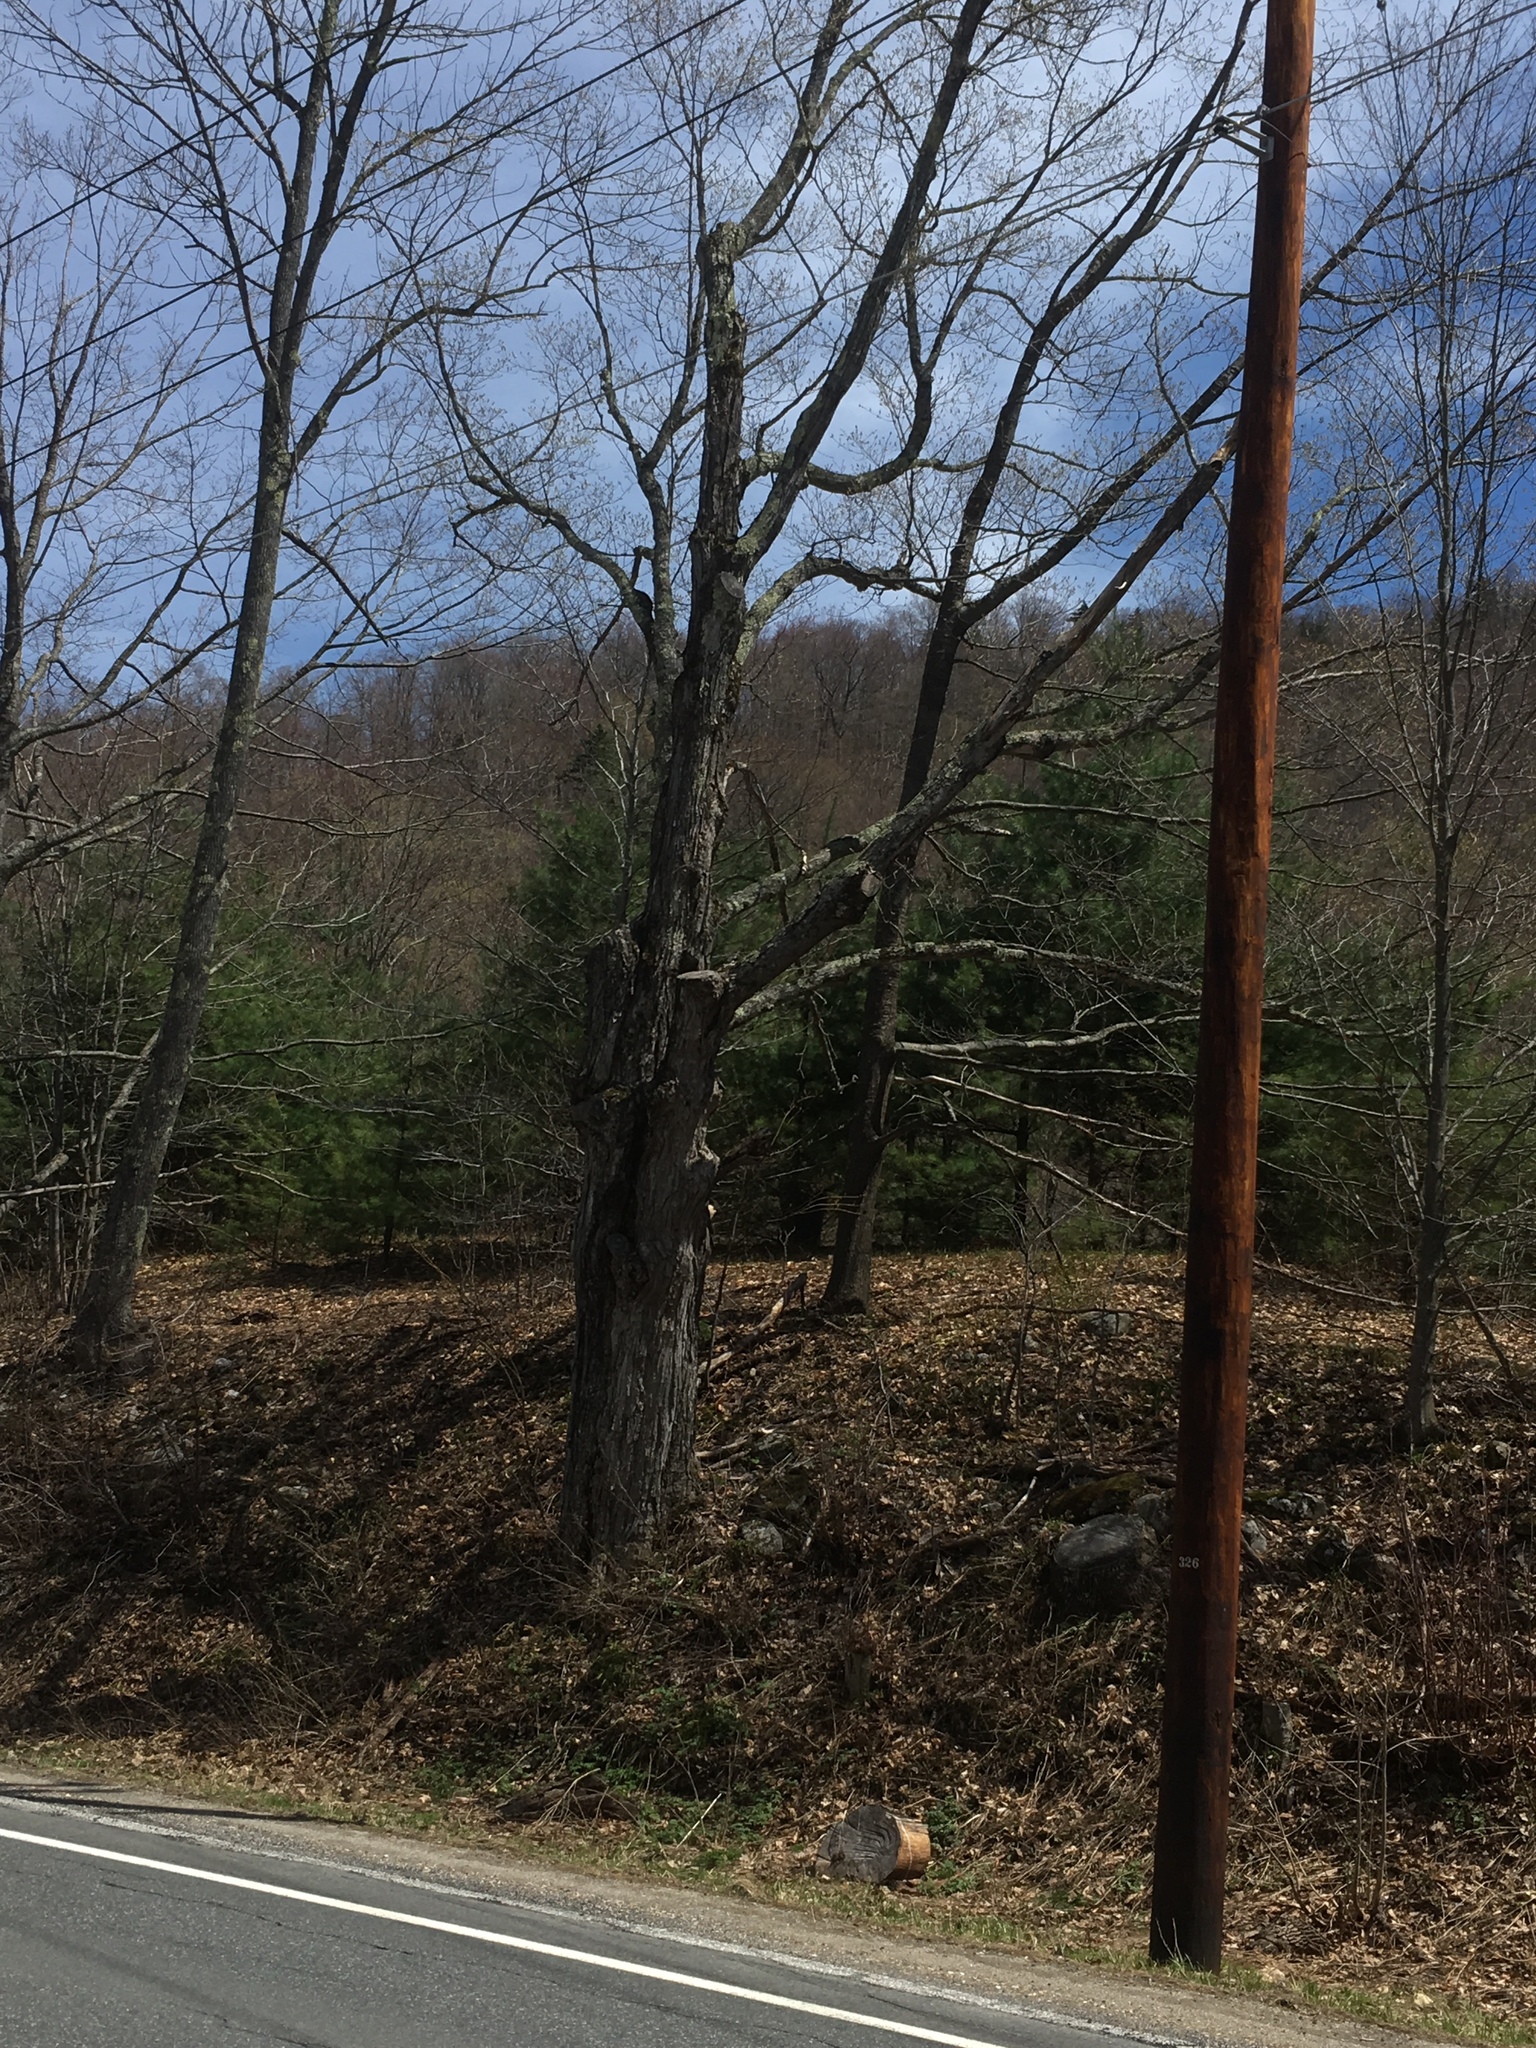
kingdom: Plantae
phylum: Tracheophyta
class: Magnoliopsida
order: Sapindales
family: Sapindaceae
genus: Acer
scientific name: Acer saccharum
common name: Sugar maple
